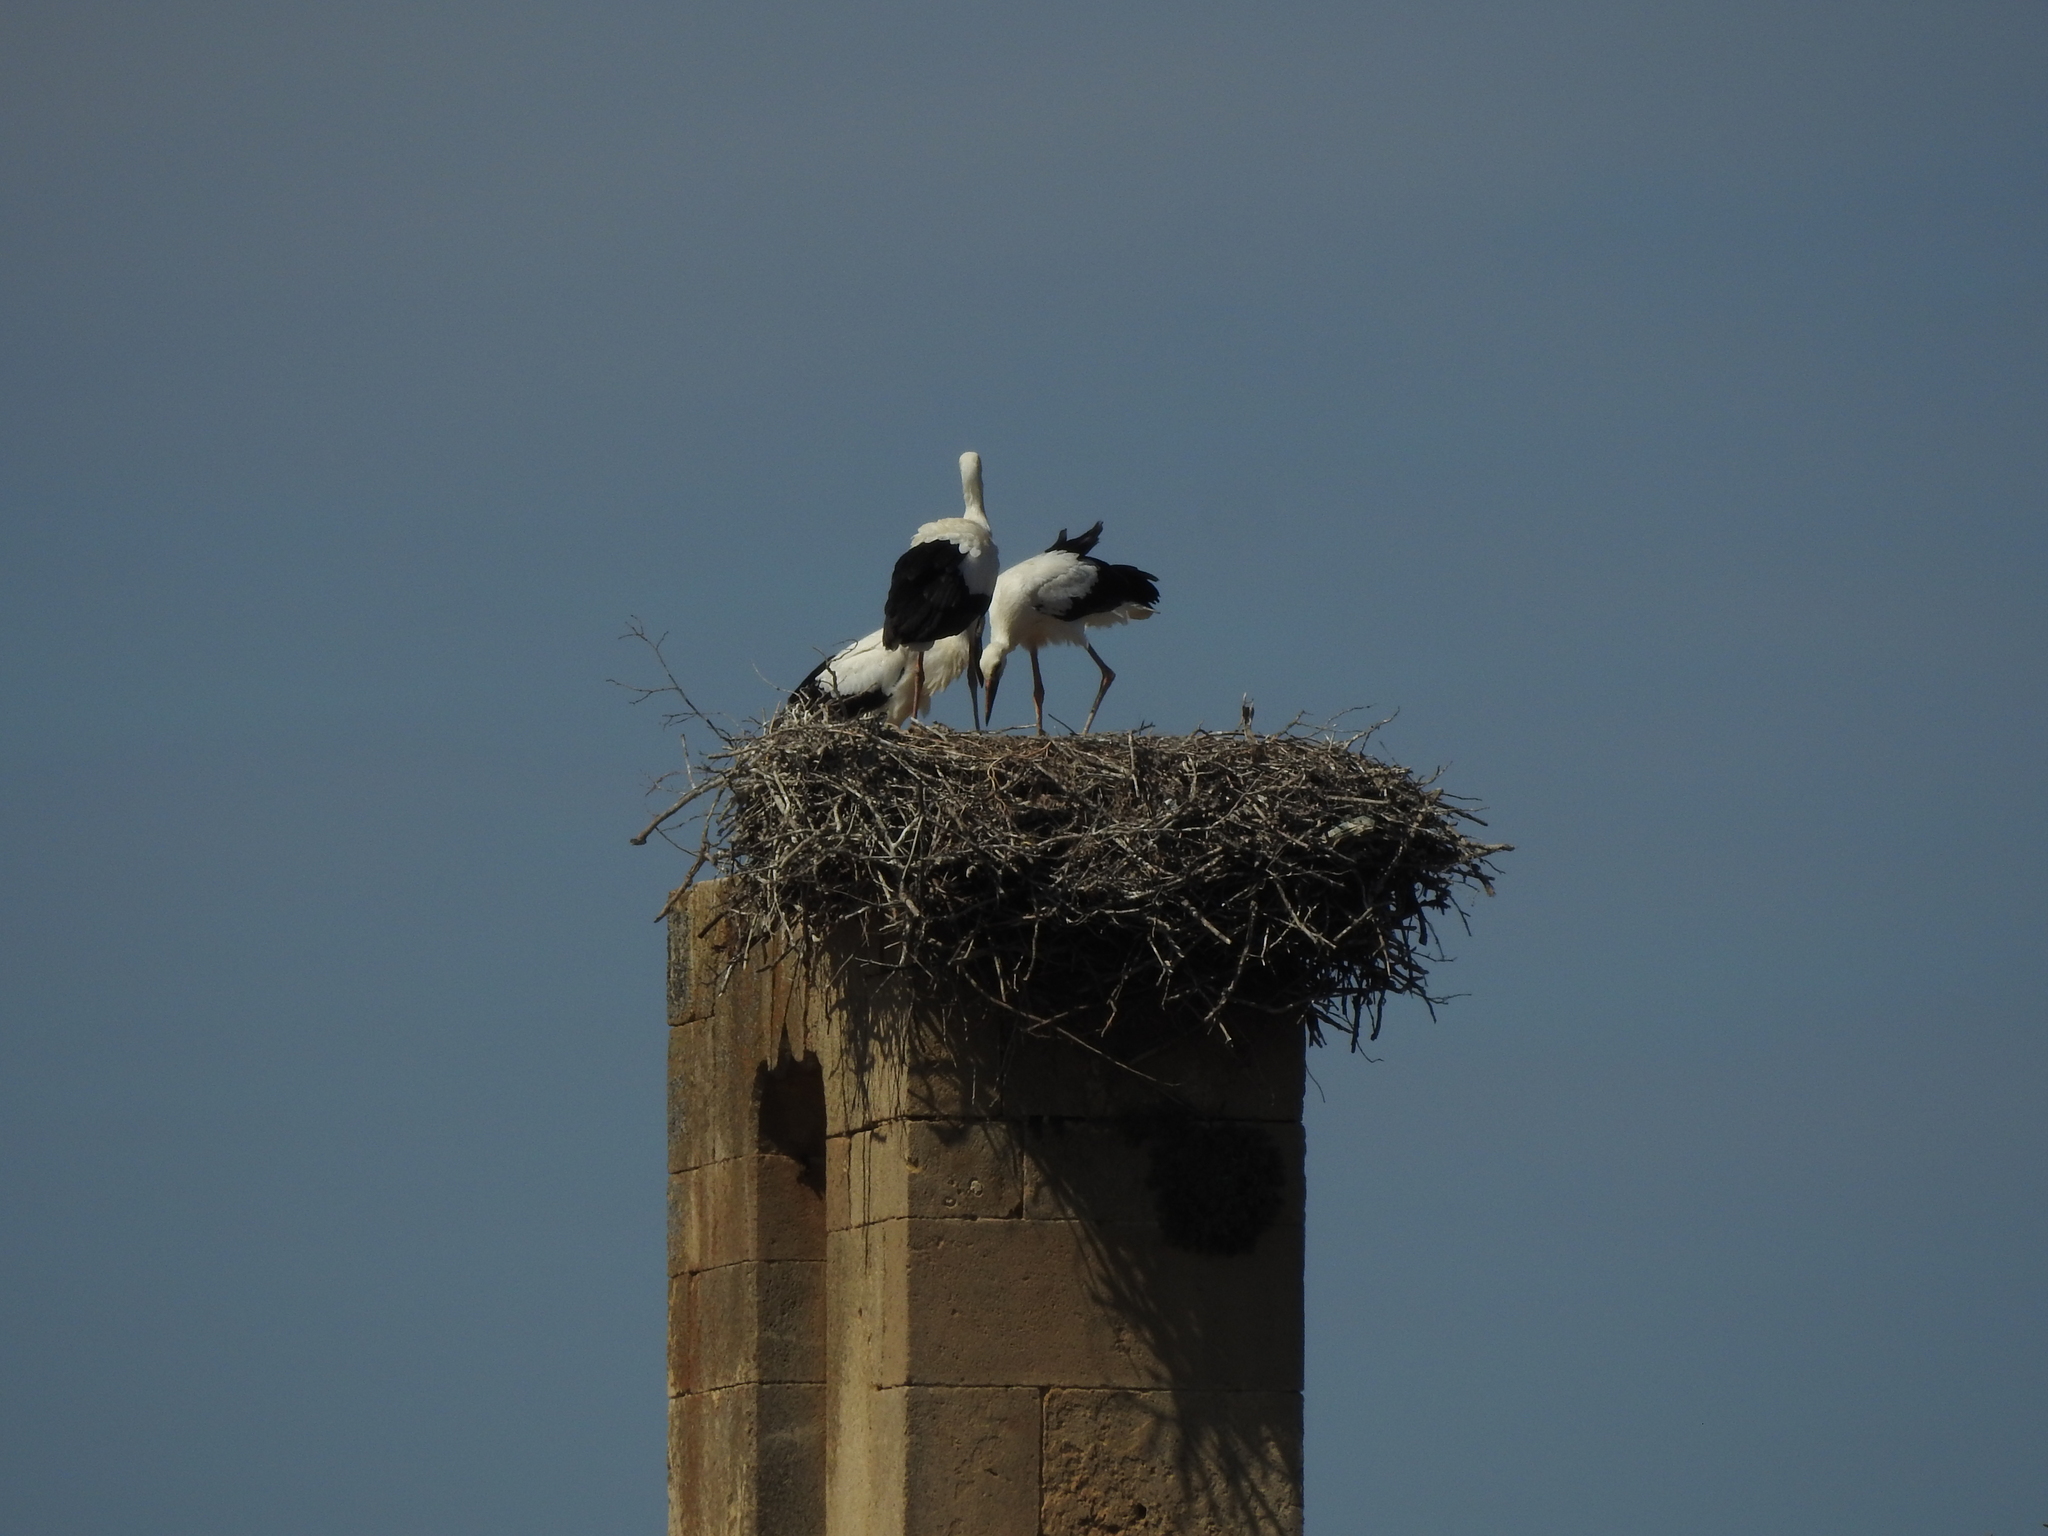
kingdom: Animalia
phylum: Chordata
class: Aves
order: Ciconiiformes
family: Ciconiidae
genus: Ciconia
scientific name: Ciconia ciconia
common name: White stork
